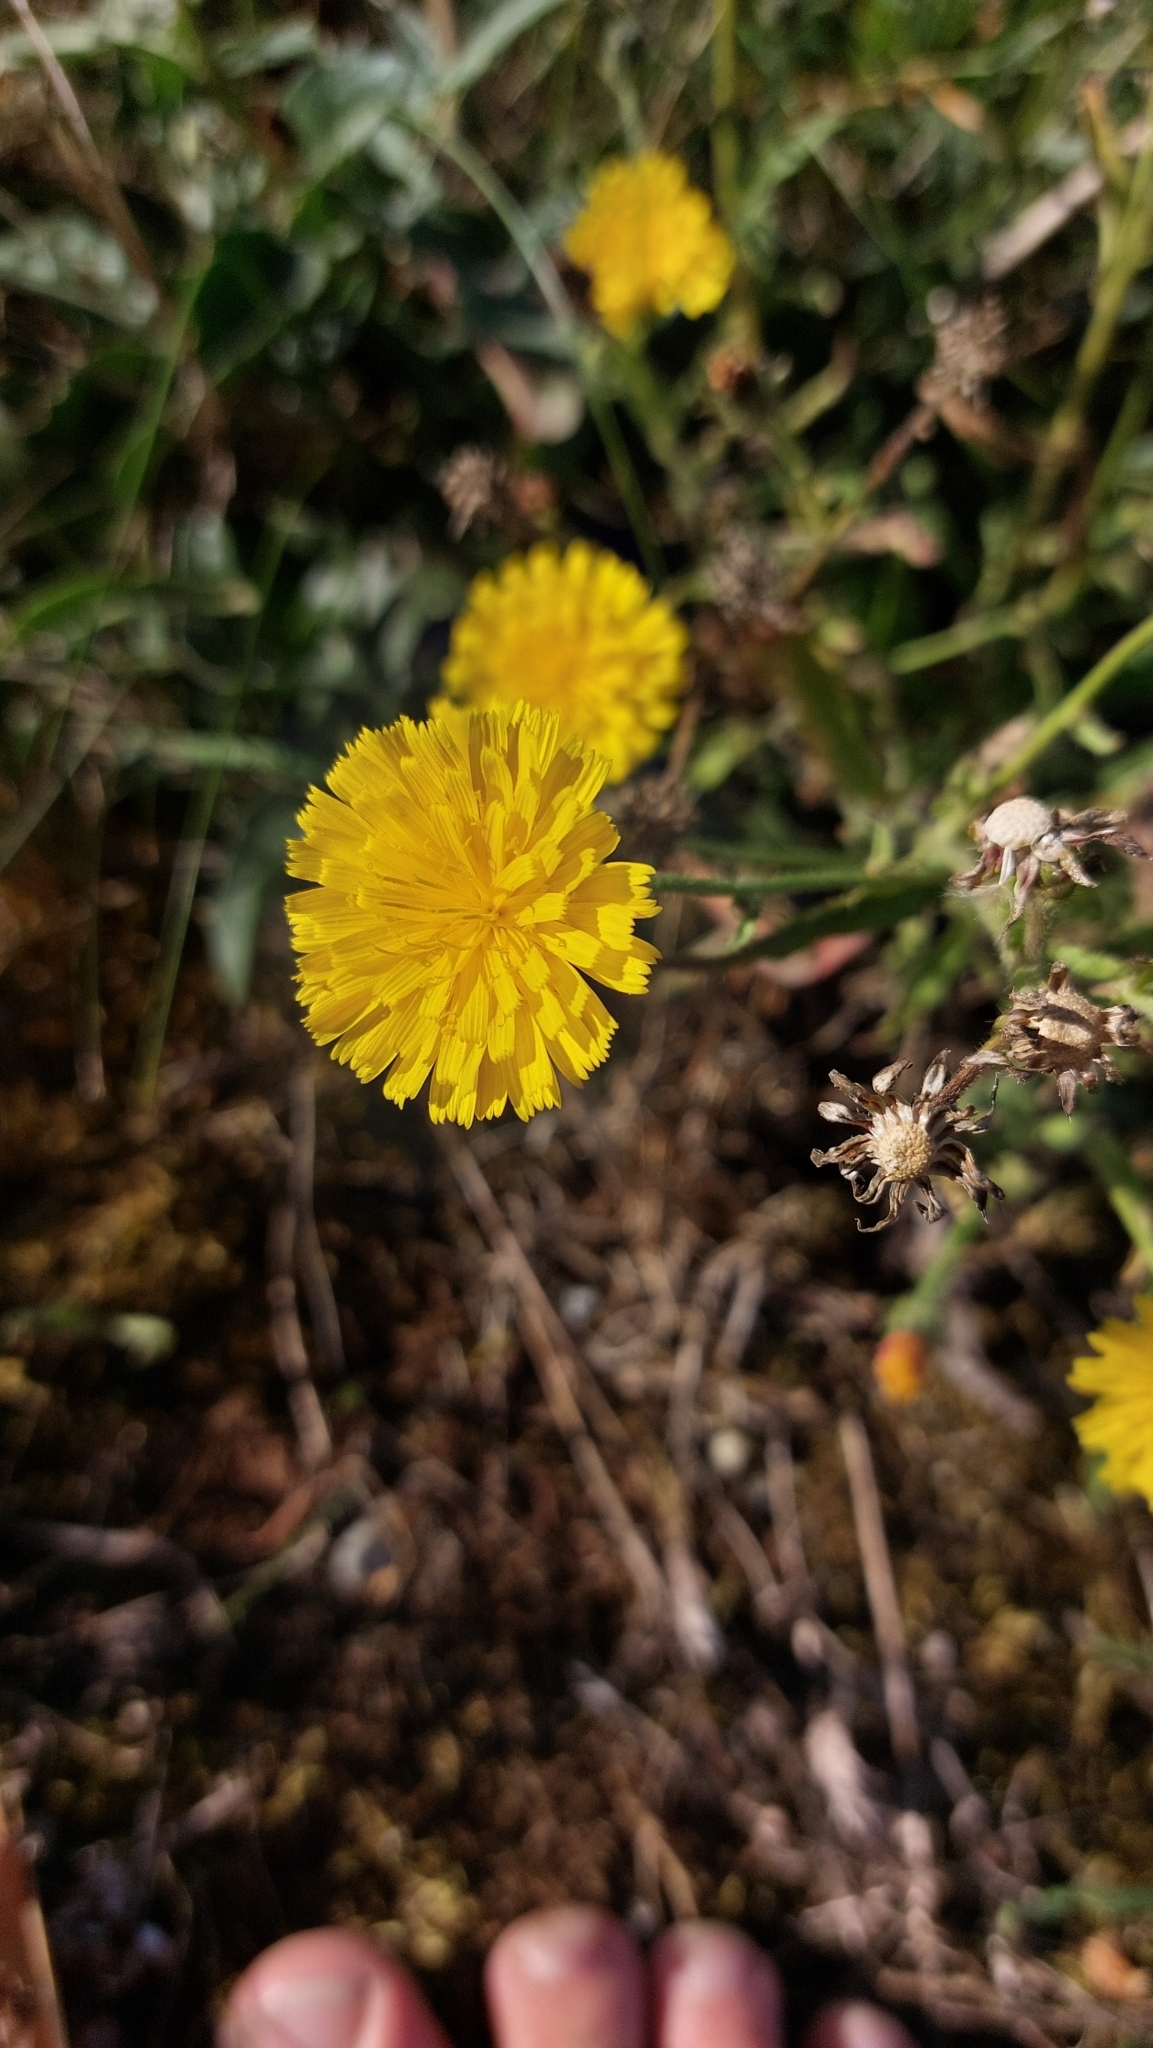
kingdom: Plantae
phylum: Tracheophyta
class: Magnoliopsida
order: Asterales
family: Asteraceae
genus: Picris
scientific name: Picris hieracioides
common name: Hawkweed oxtongue
